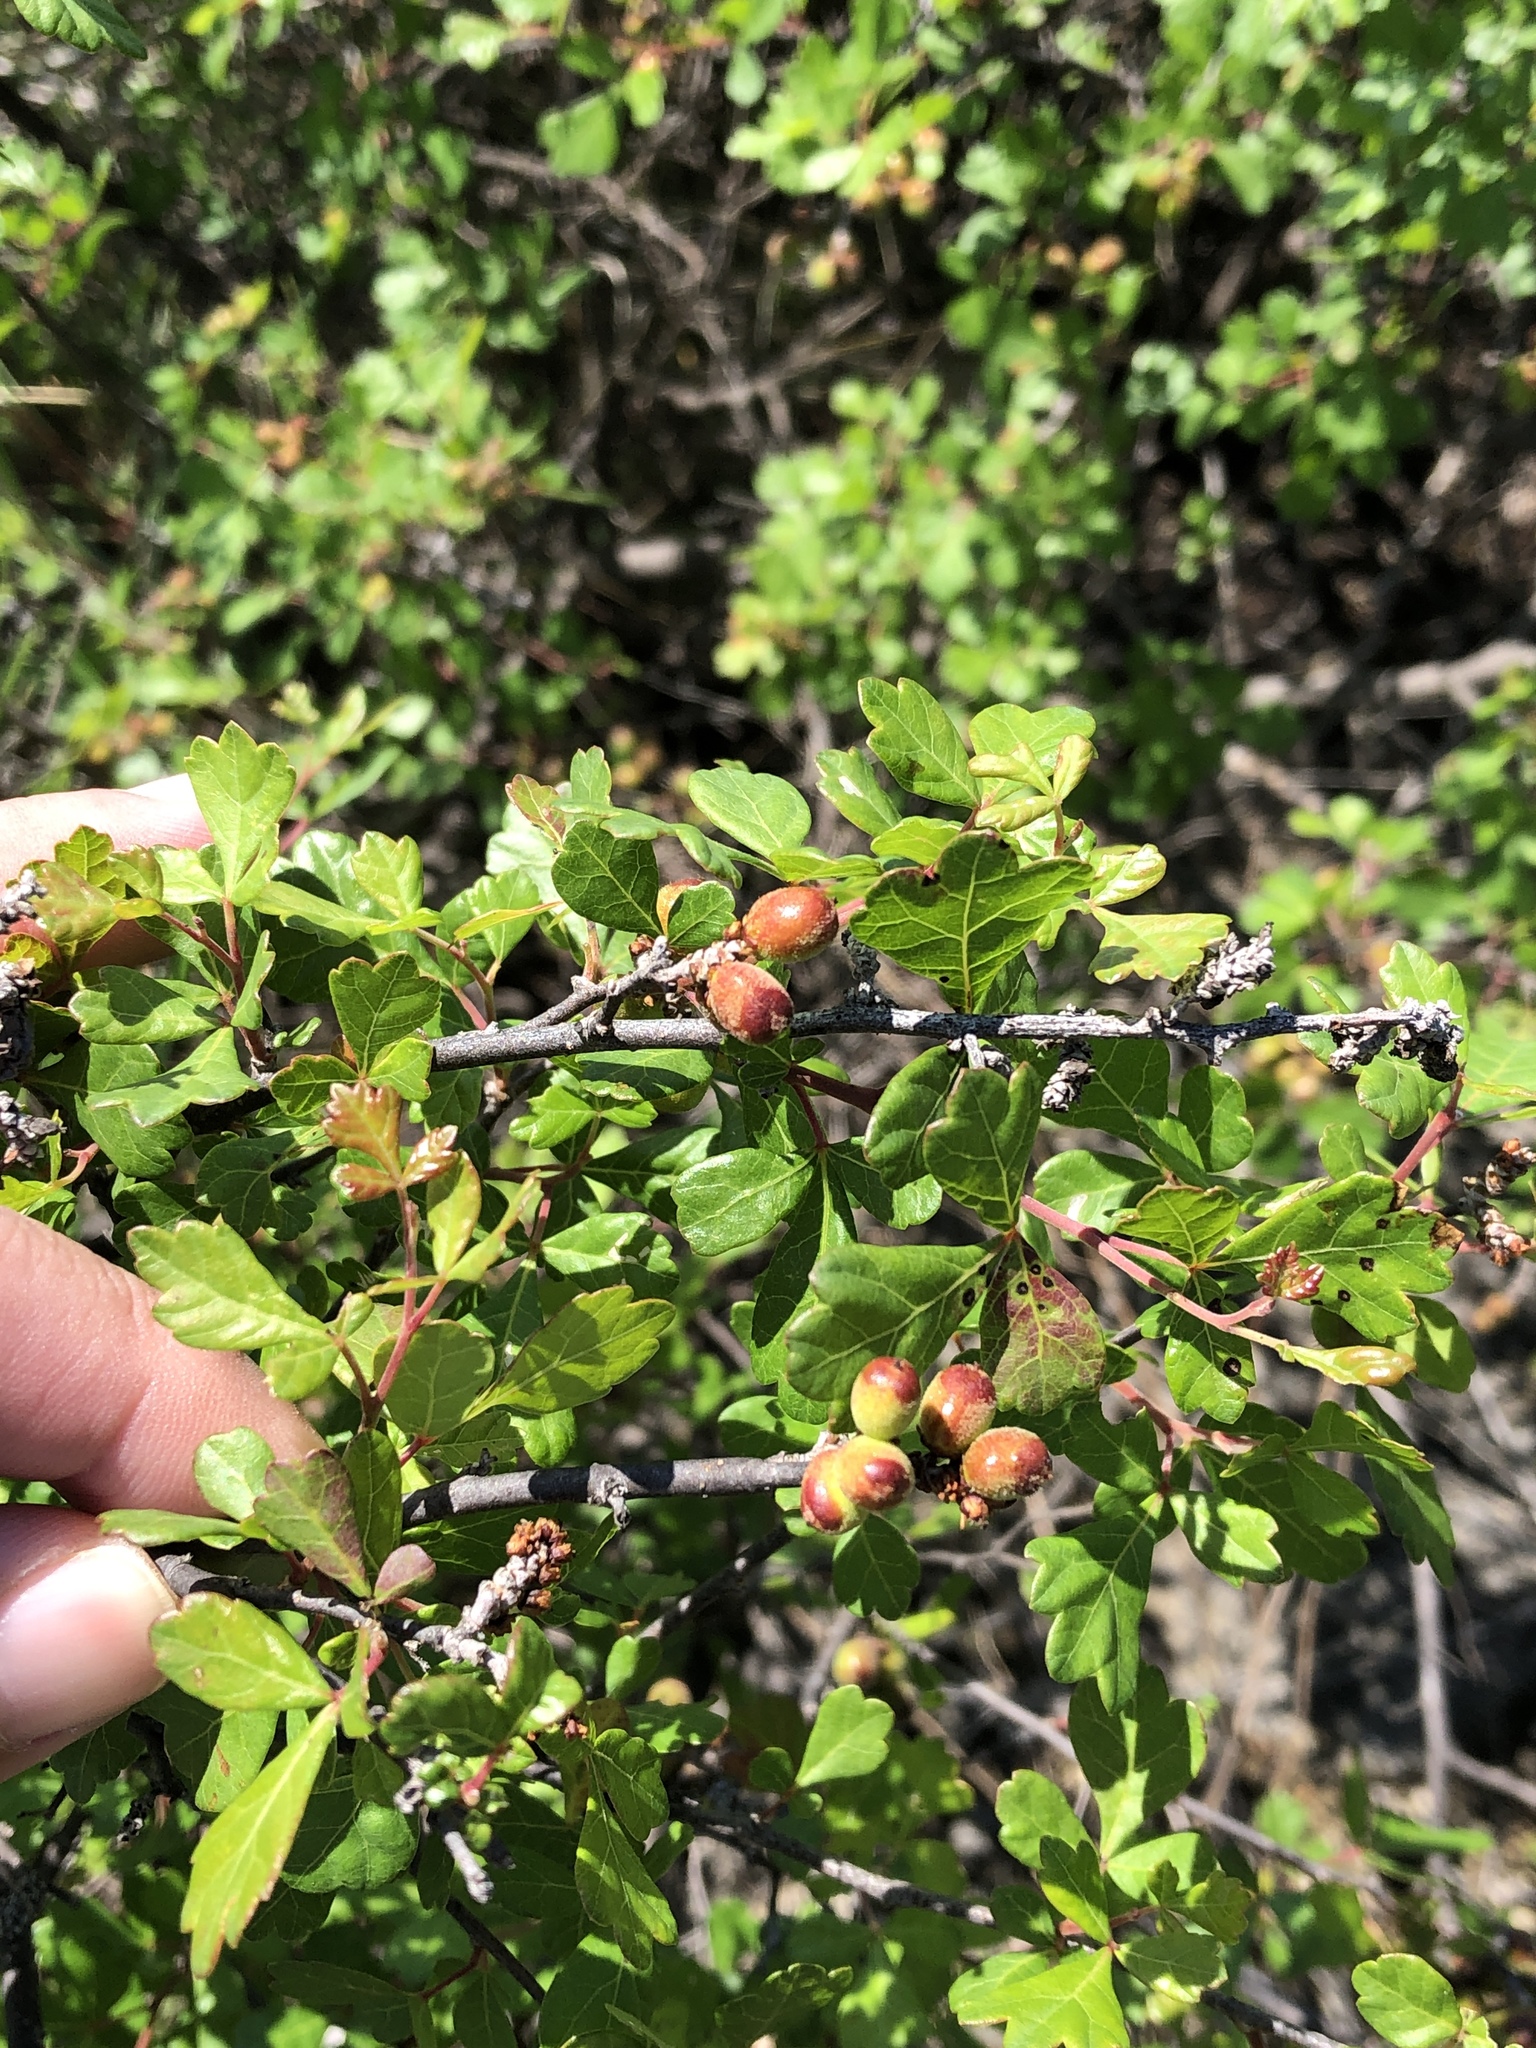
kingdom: Plantae
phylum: Tracheophyta
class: Magnoliopsida
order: Sapindales
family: Anacardiaceae
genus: Rhus
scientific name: Rhus aromatica
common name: Aromatic sumac
